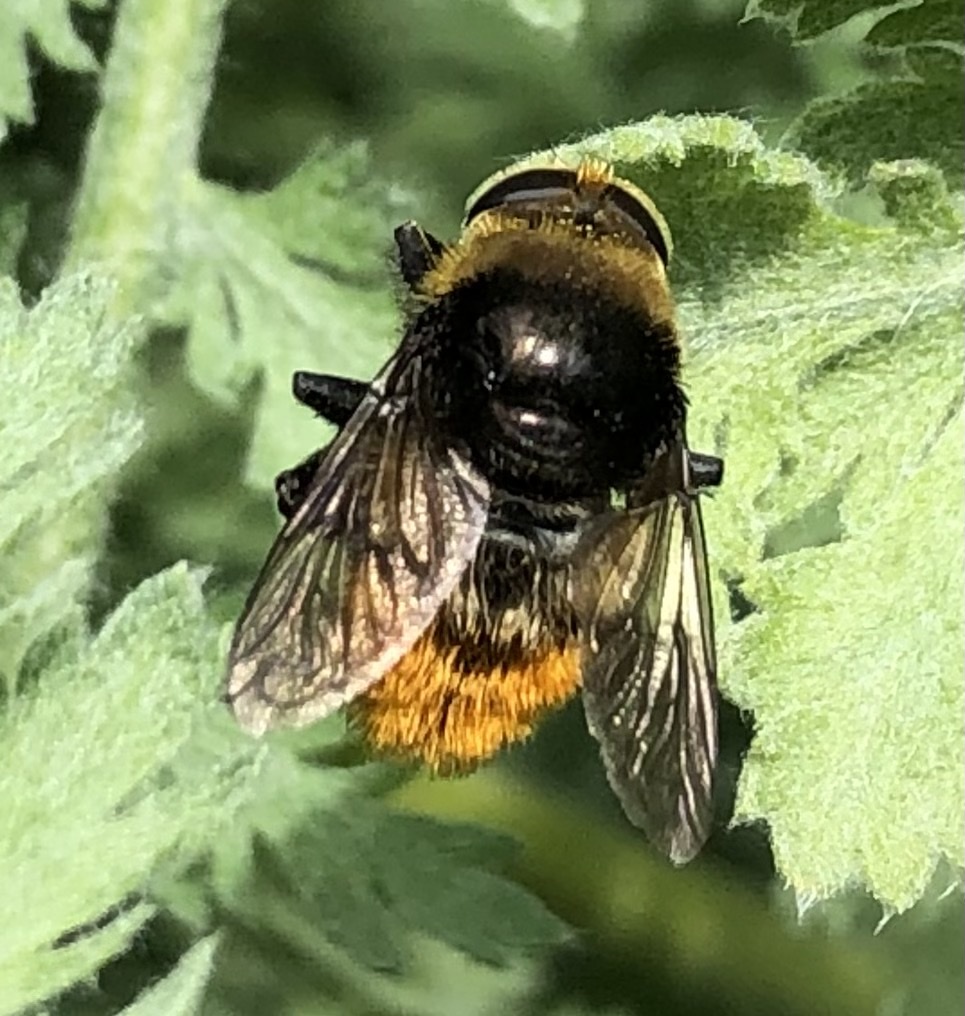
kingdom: Animalia
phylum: Arthropoda
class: Insecta
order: Diptera
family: Syrphidae
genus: Merodon
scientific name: Merodon equestris
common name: Greater bulb-fly
